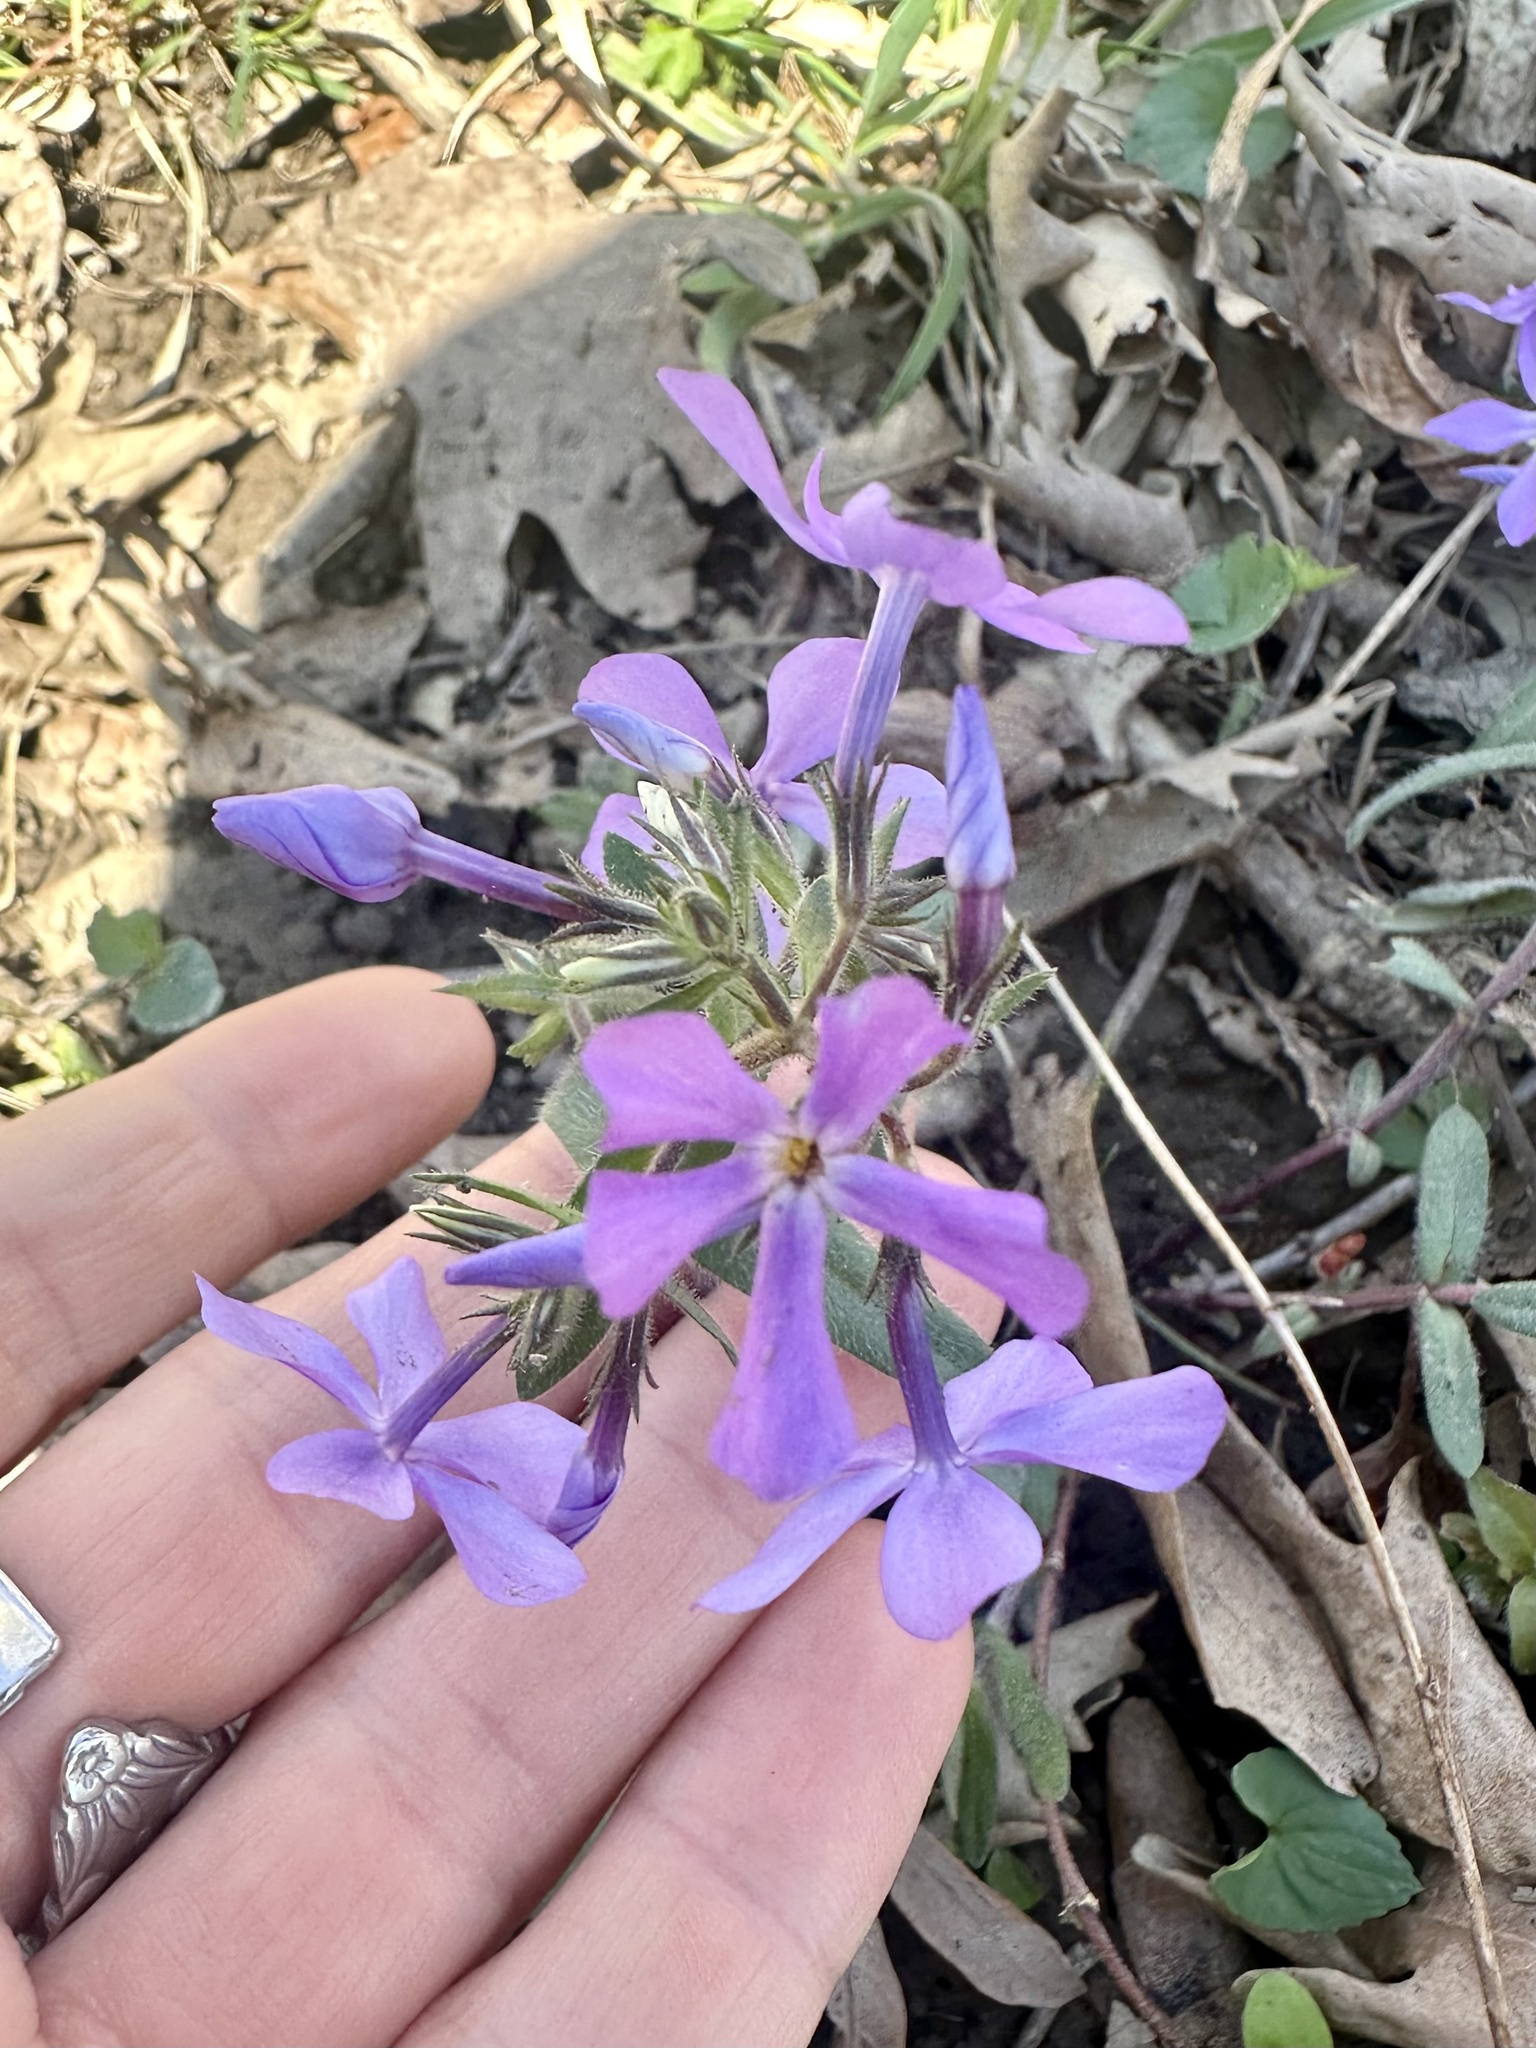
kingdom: Plantae
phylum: Tracheophyta
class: Magnoliopsida
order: Ericales
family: Polemoniaceae
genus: Phlox
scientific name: Phlox divaricata
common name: Blue phlox
